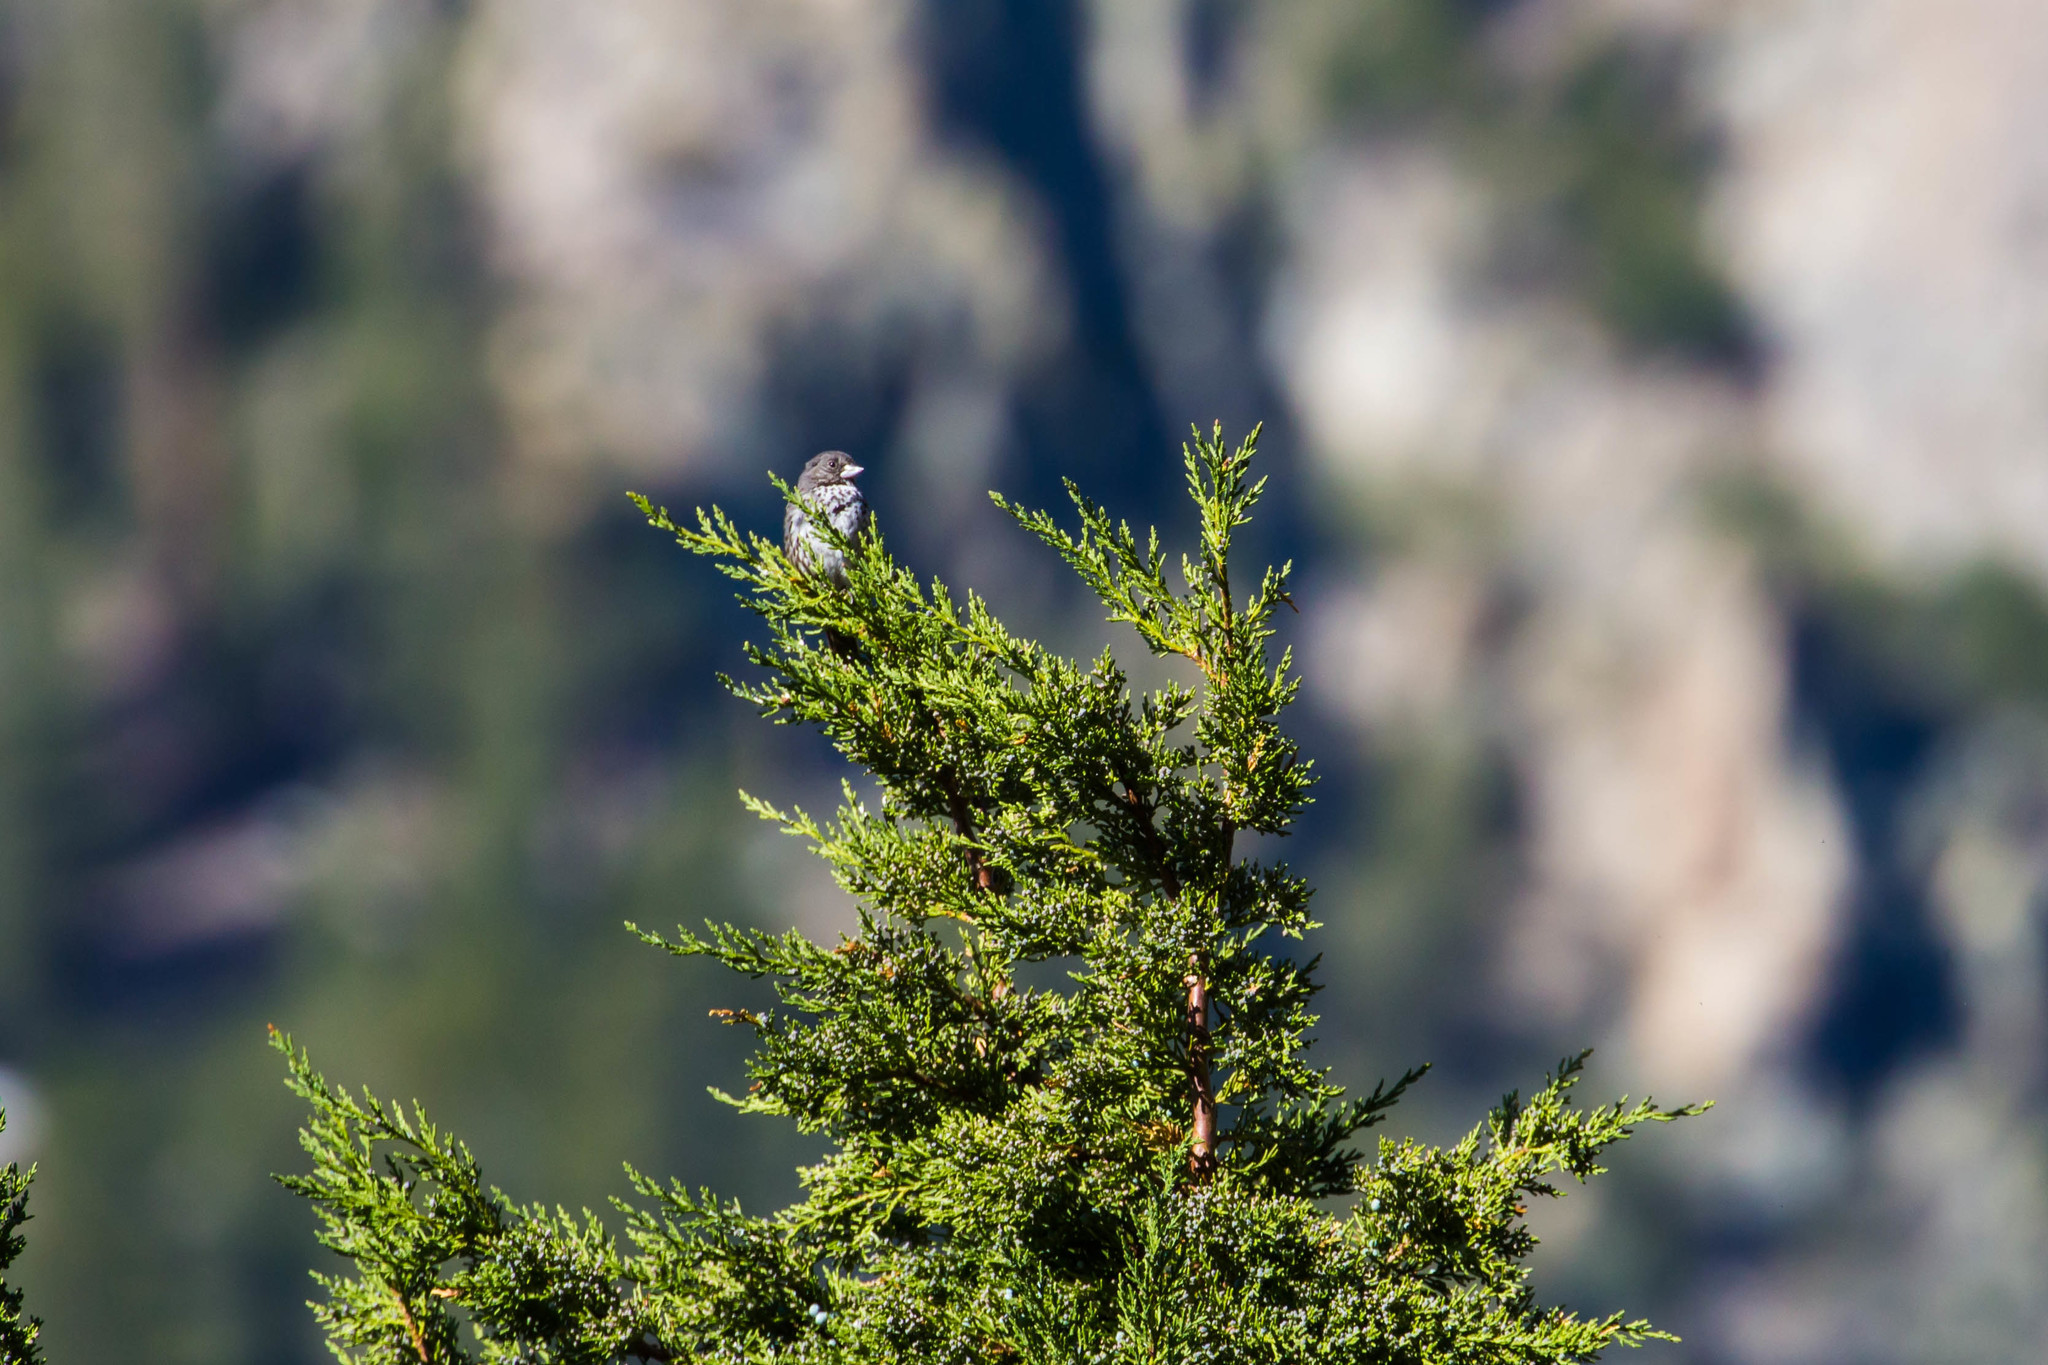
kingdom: Animalia
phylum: Chordata
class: Aves
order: Passeriformes
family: Passerellidae
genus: Passerella
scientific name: Passerella megarhyncha
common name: Thick-billed fox sparrow
